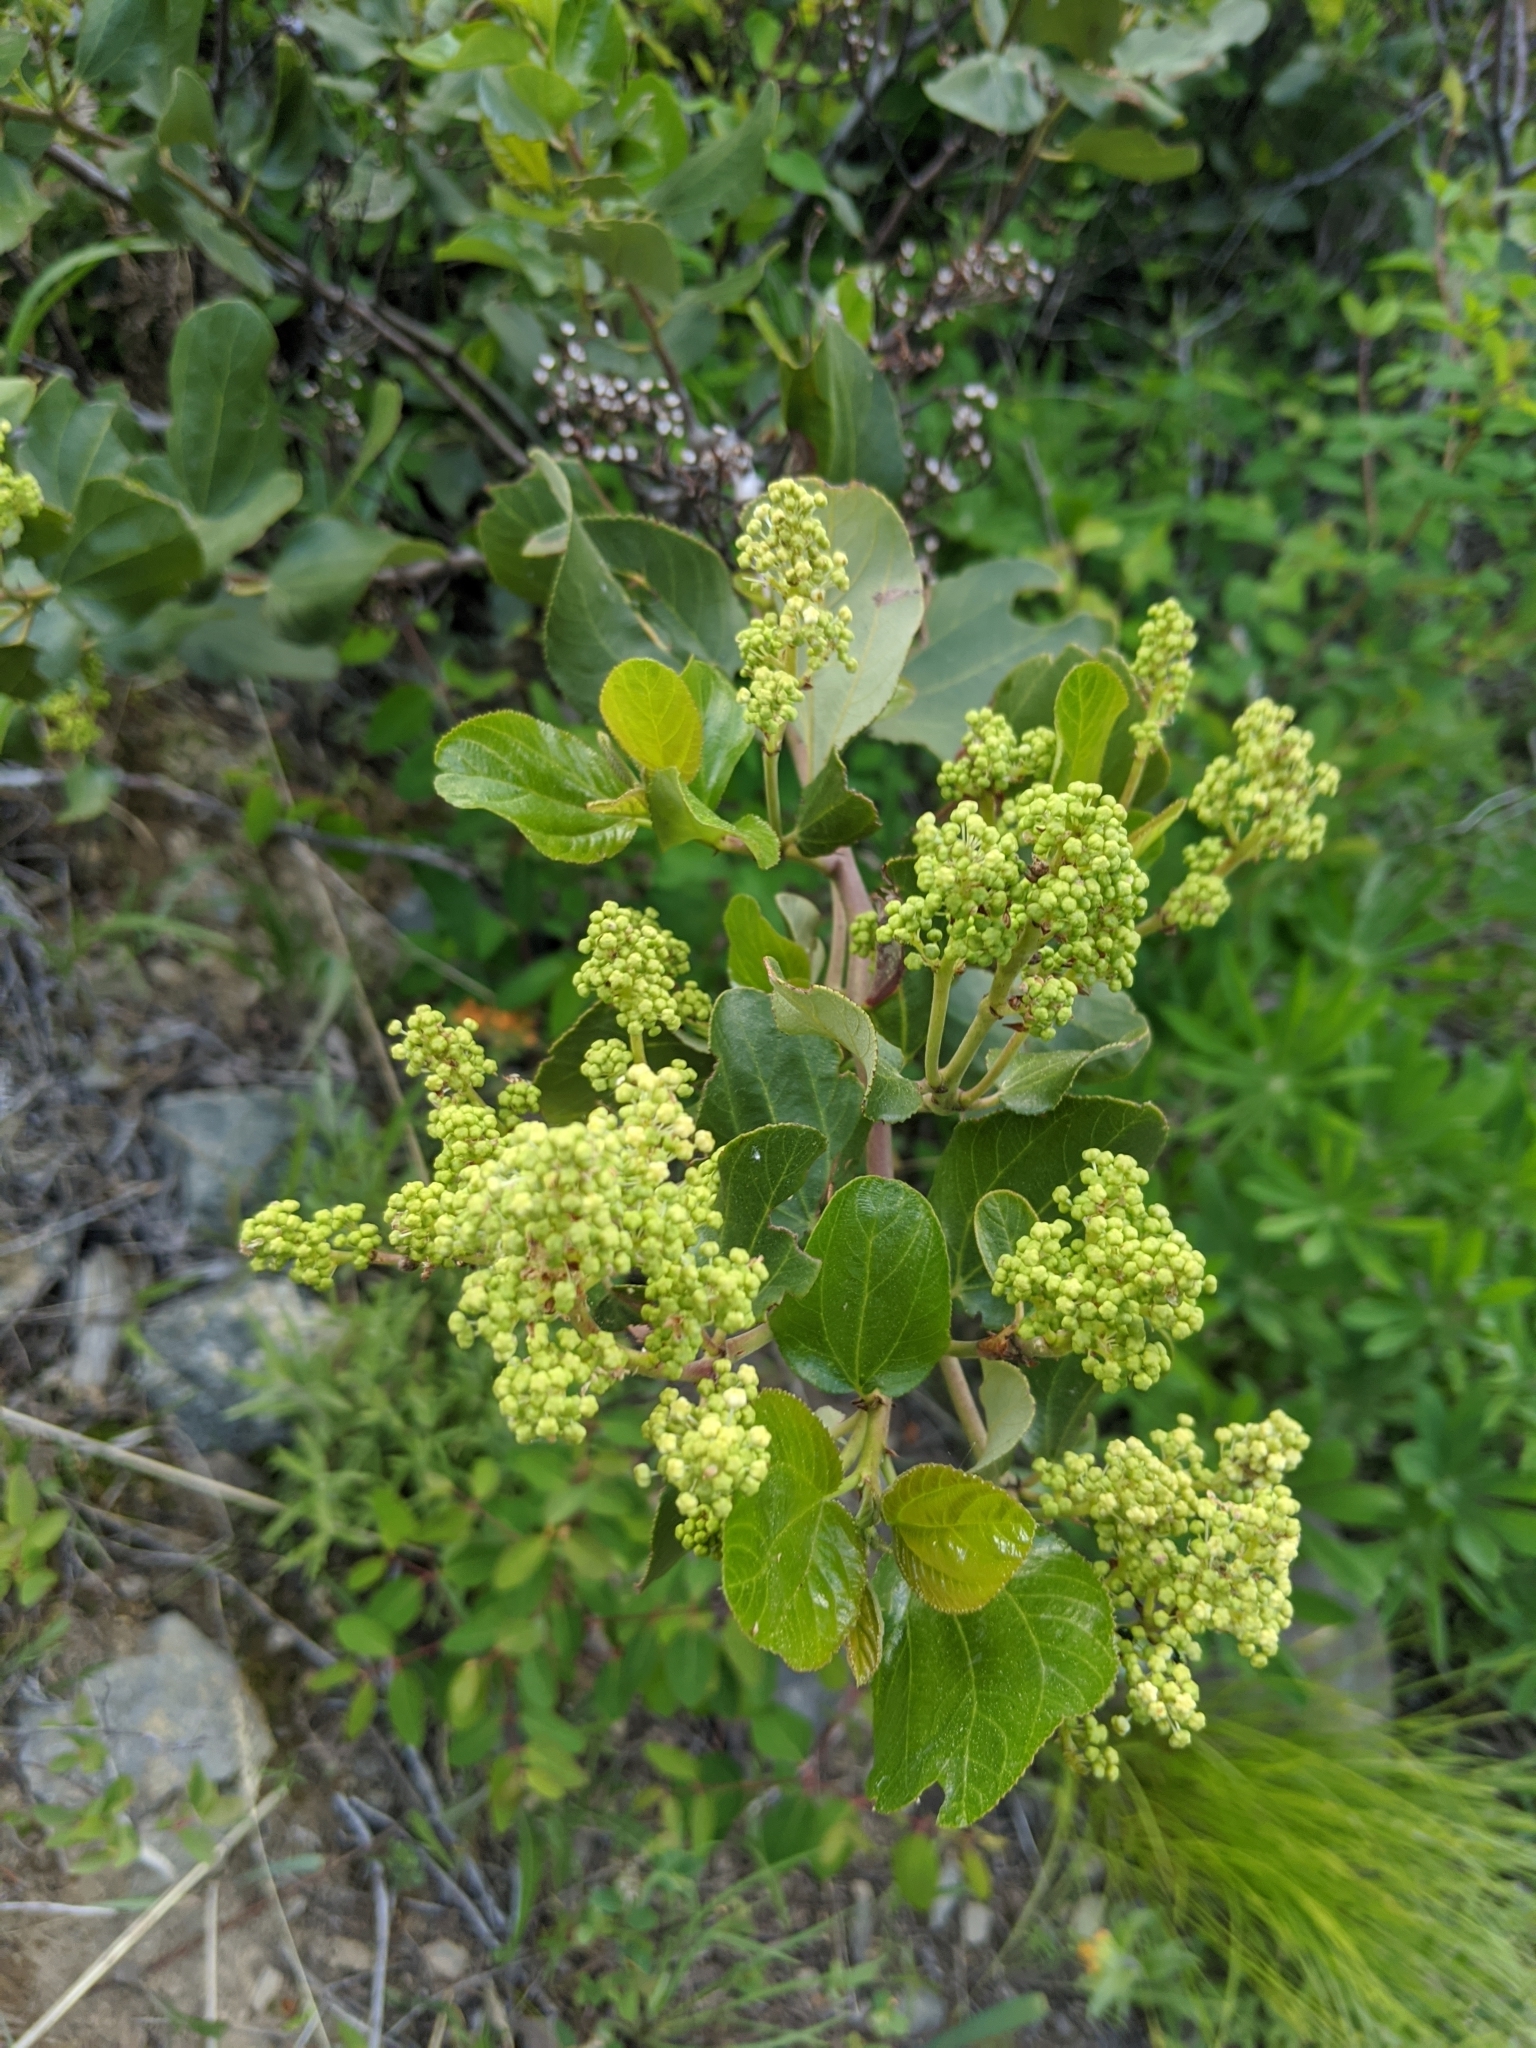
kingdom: Plantae
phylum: Tracheophyta
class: Magnoliopsida
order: Rosales
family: Rhamnaceae
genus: Ceanothus
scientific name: Ceanothus velutinus
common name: Snowbrush
